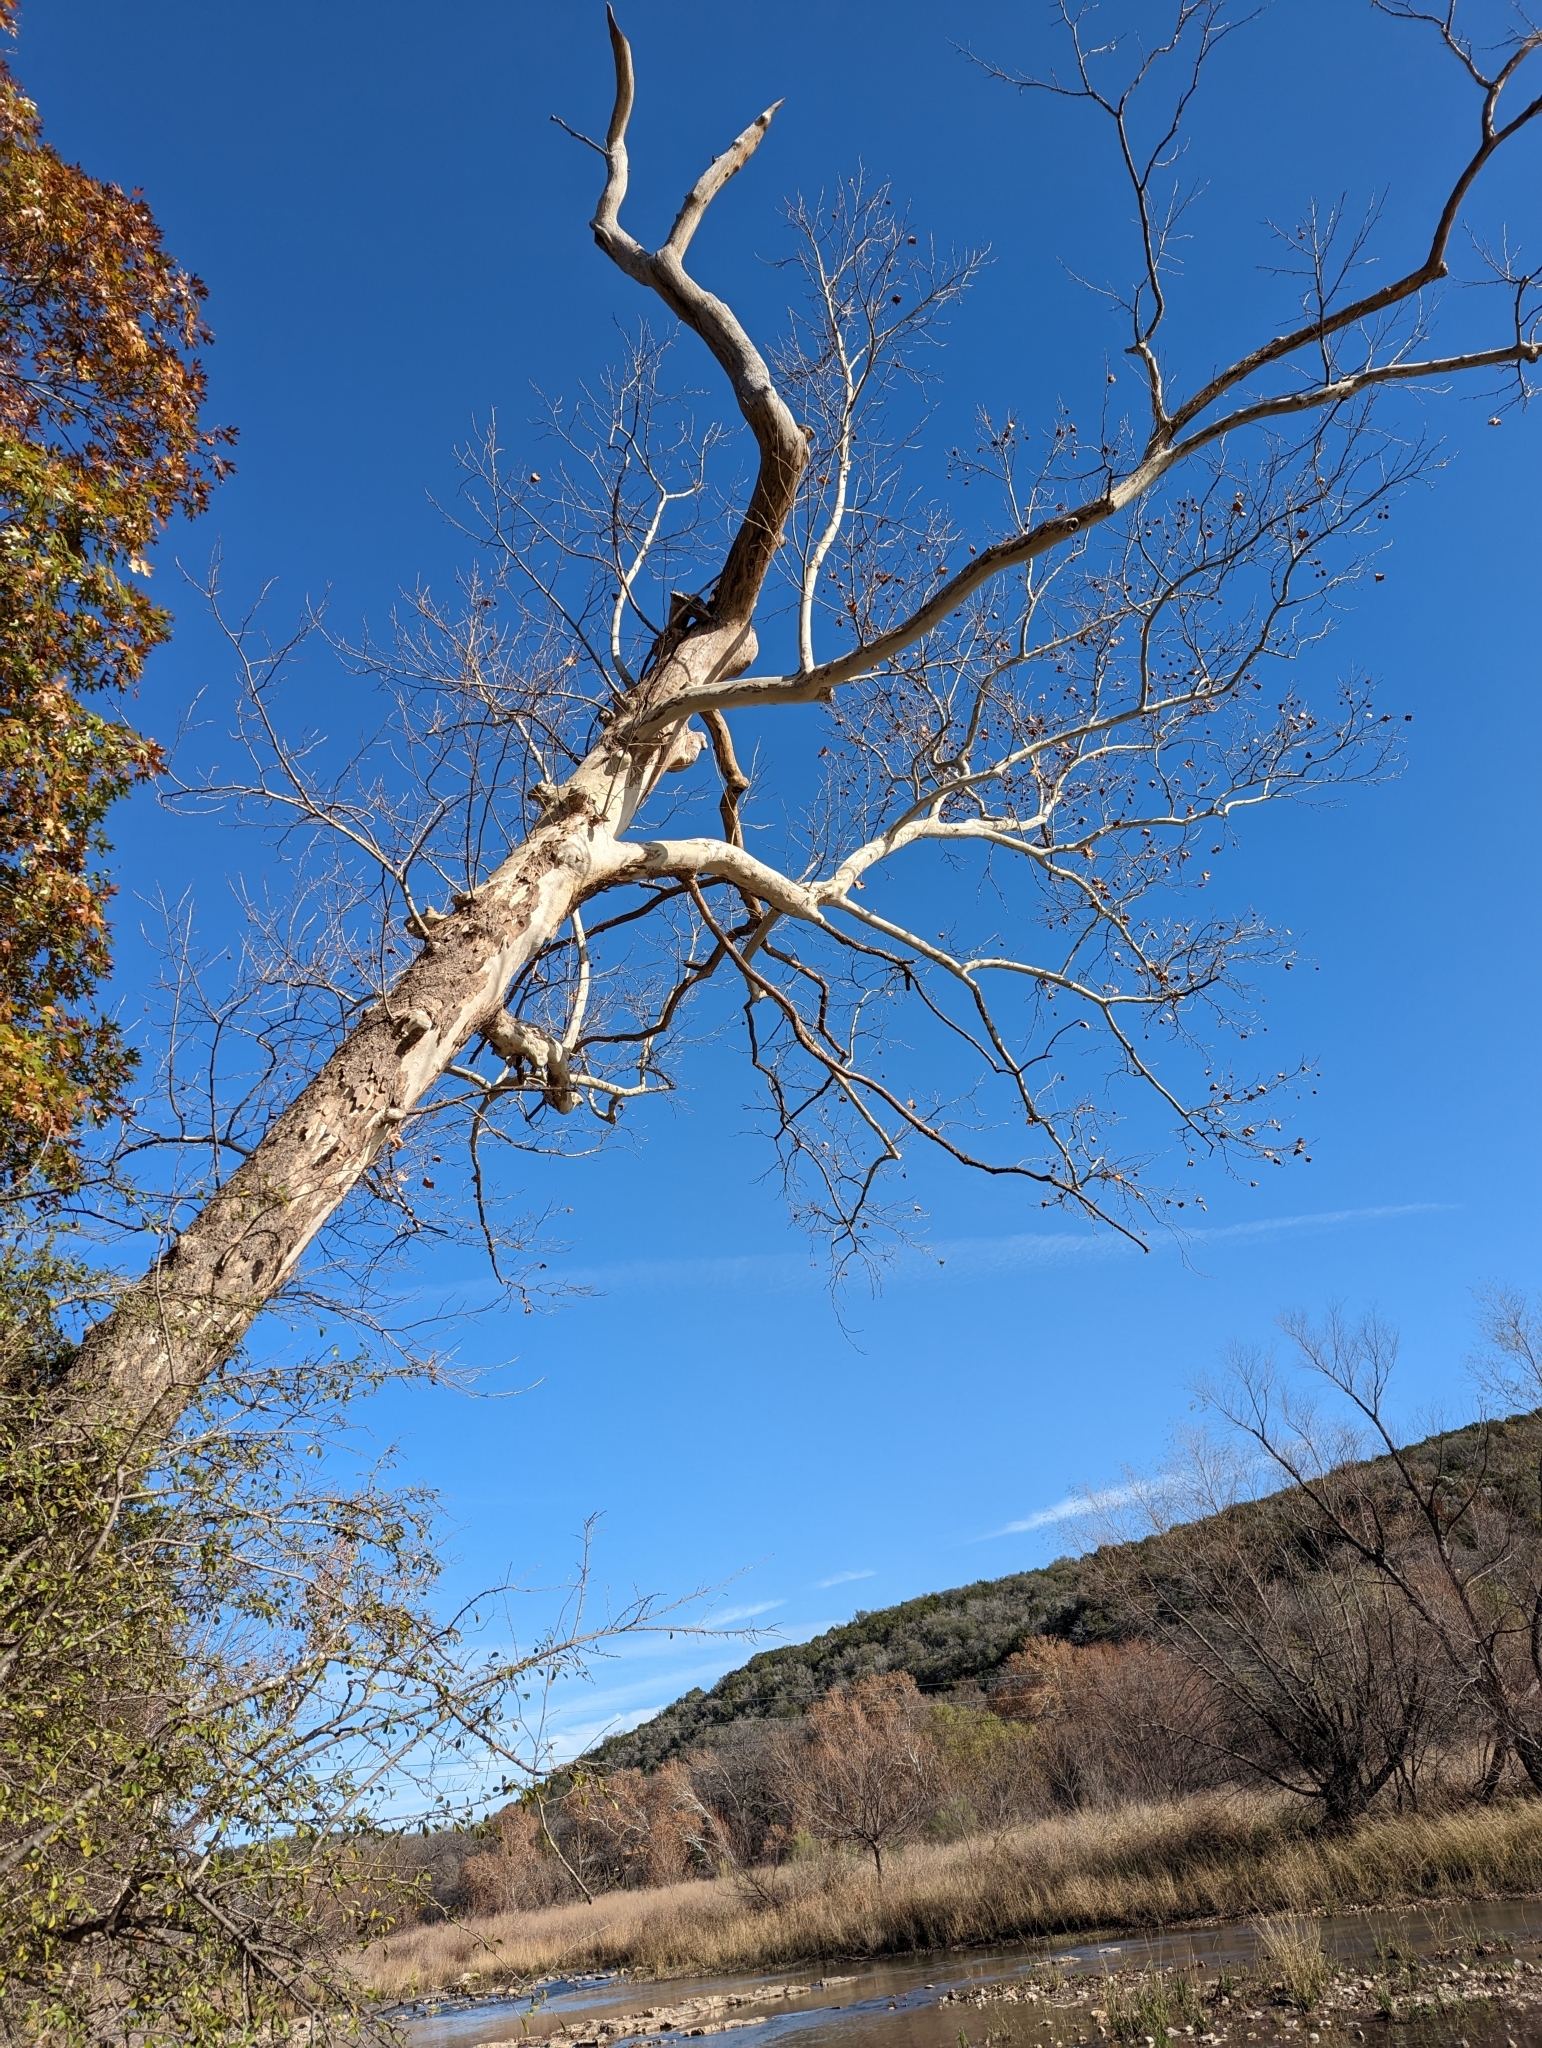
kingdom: Plantae
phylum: Tracheophyta
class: Magnoliopsida
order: Proteales
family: Platanaceae
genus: Platanus
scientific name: Platanus occidentalis
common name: American sycamore
